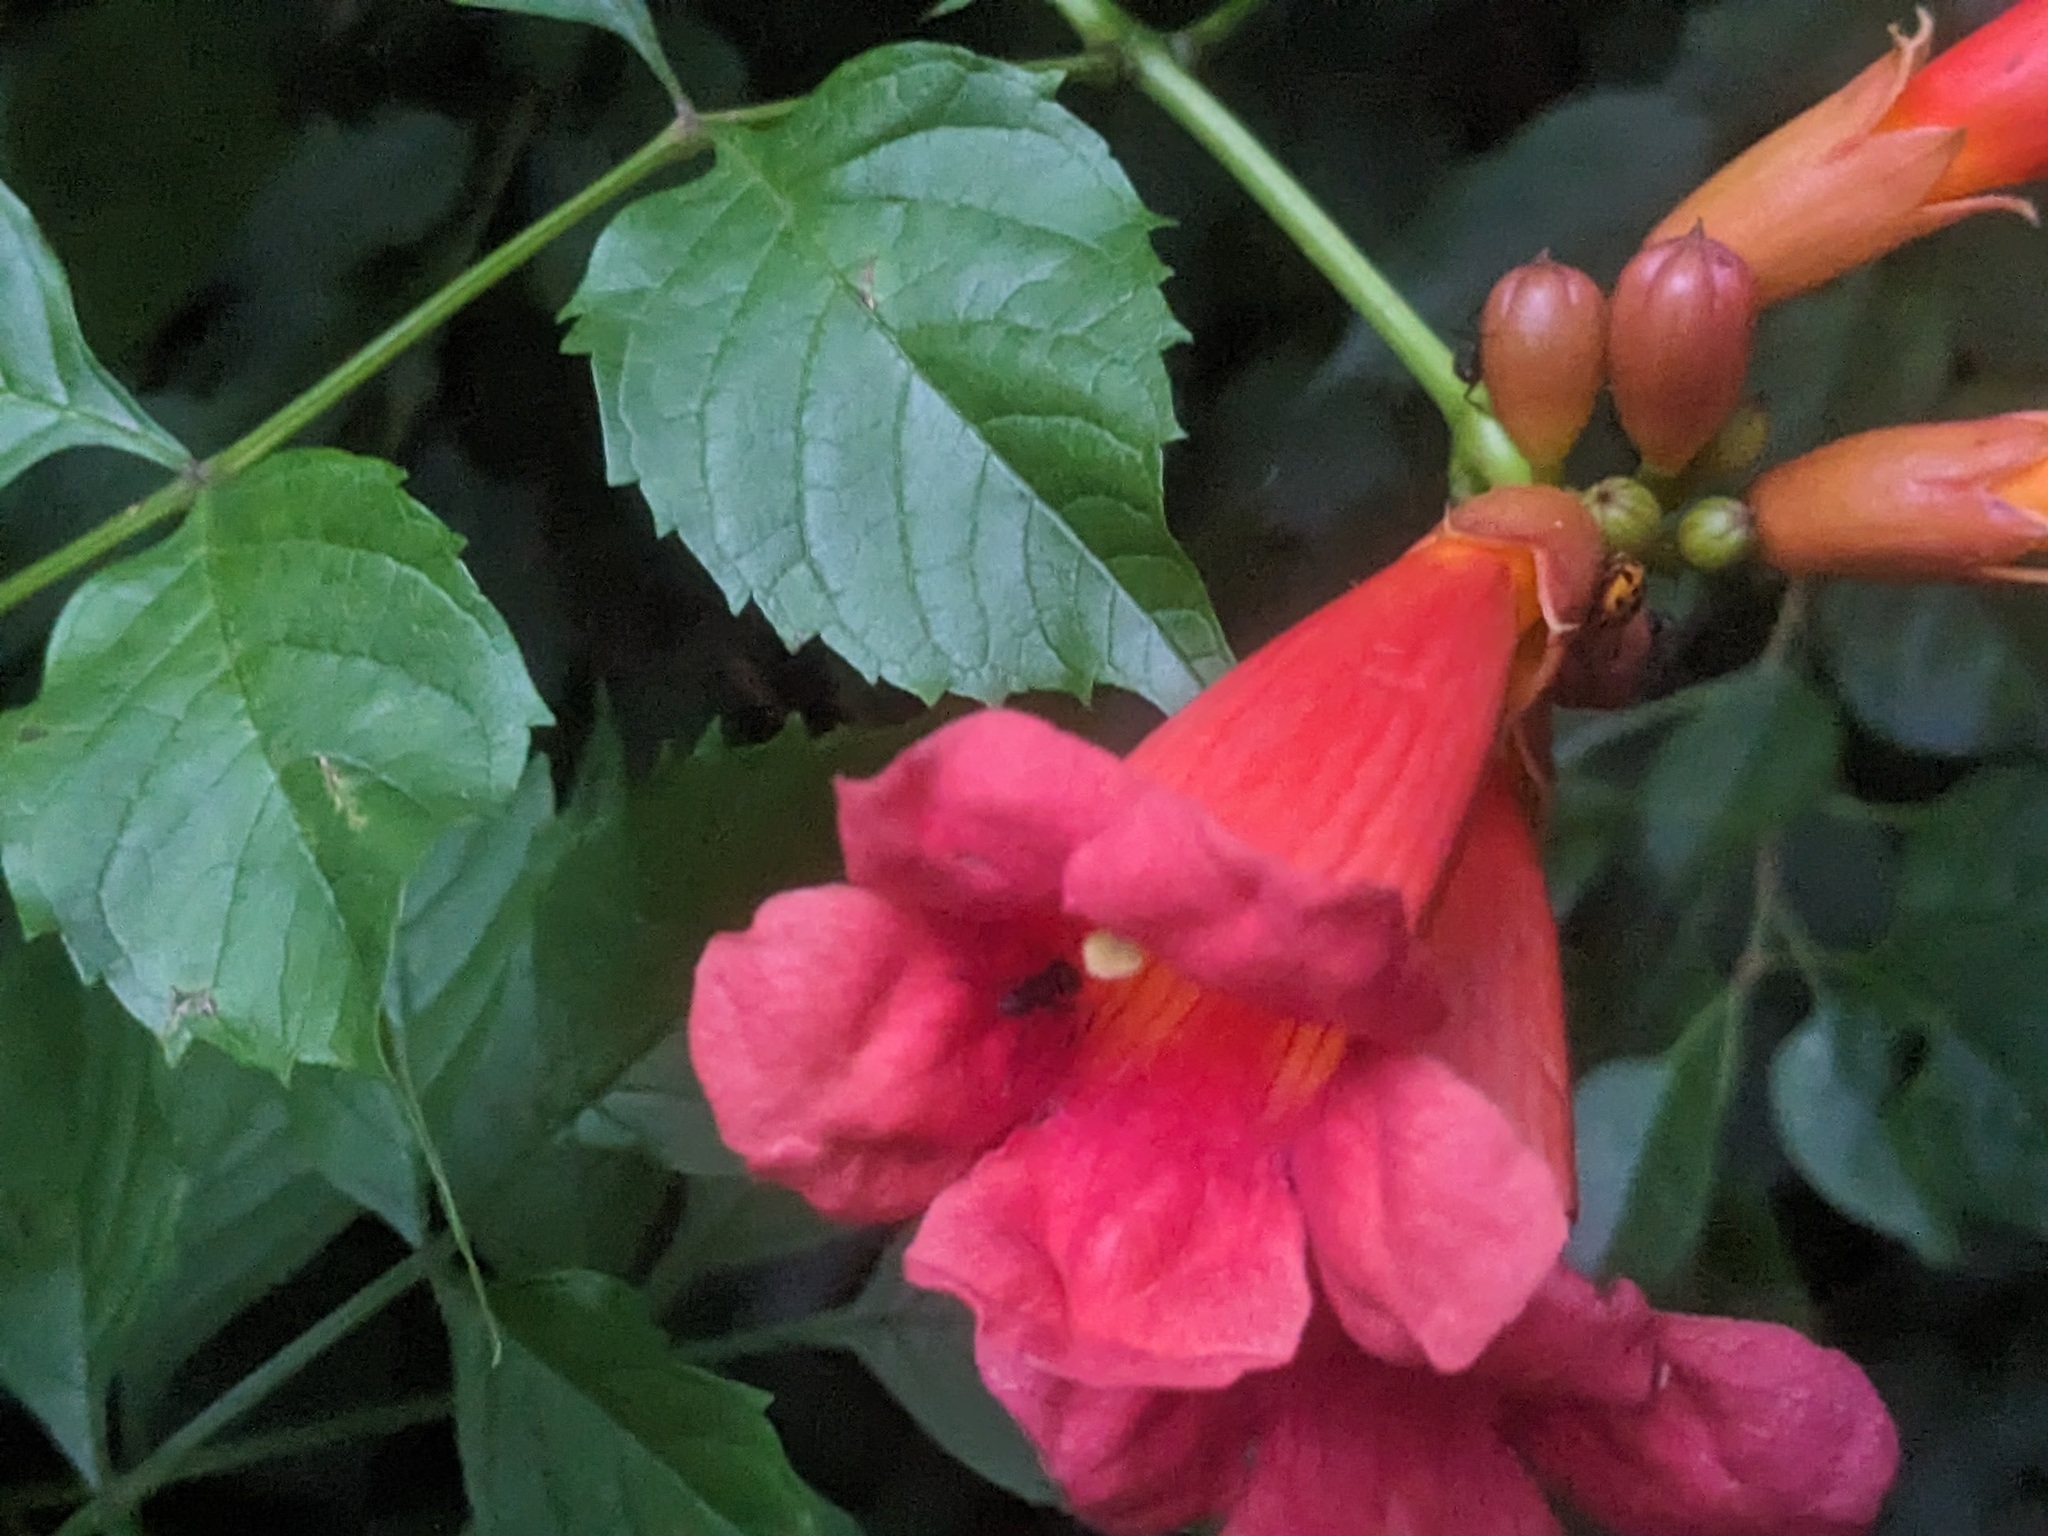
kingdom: Plantae
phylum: Tracheophyta
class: Magnoliopsida
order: Lamiales
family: Bignoniaceae
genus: Campsis
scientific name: Campsis radicans
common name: Trumpet-creeper
